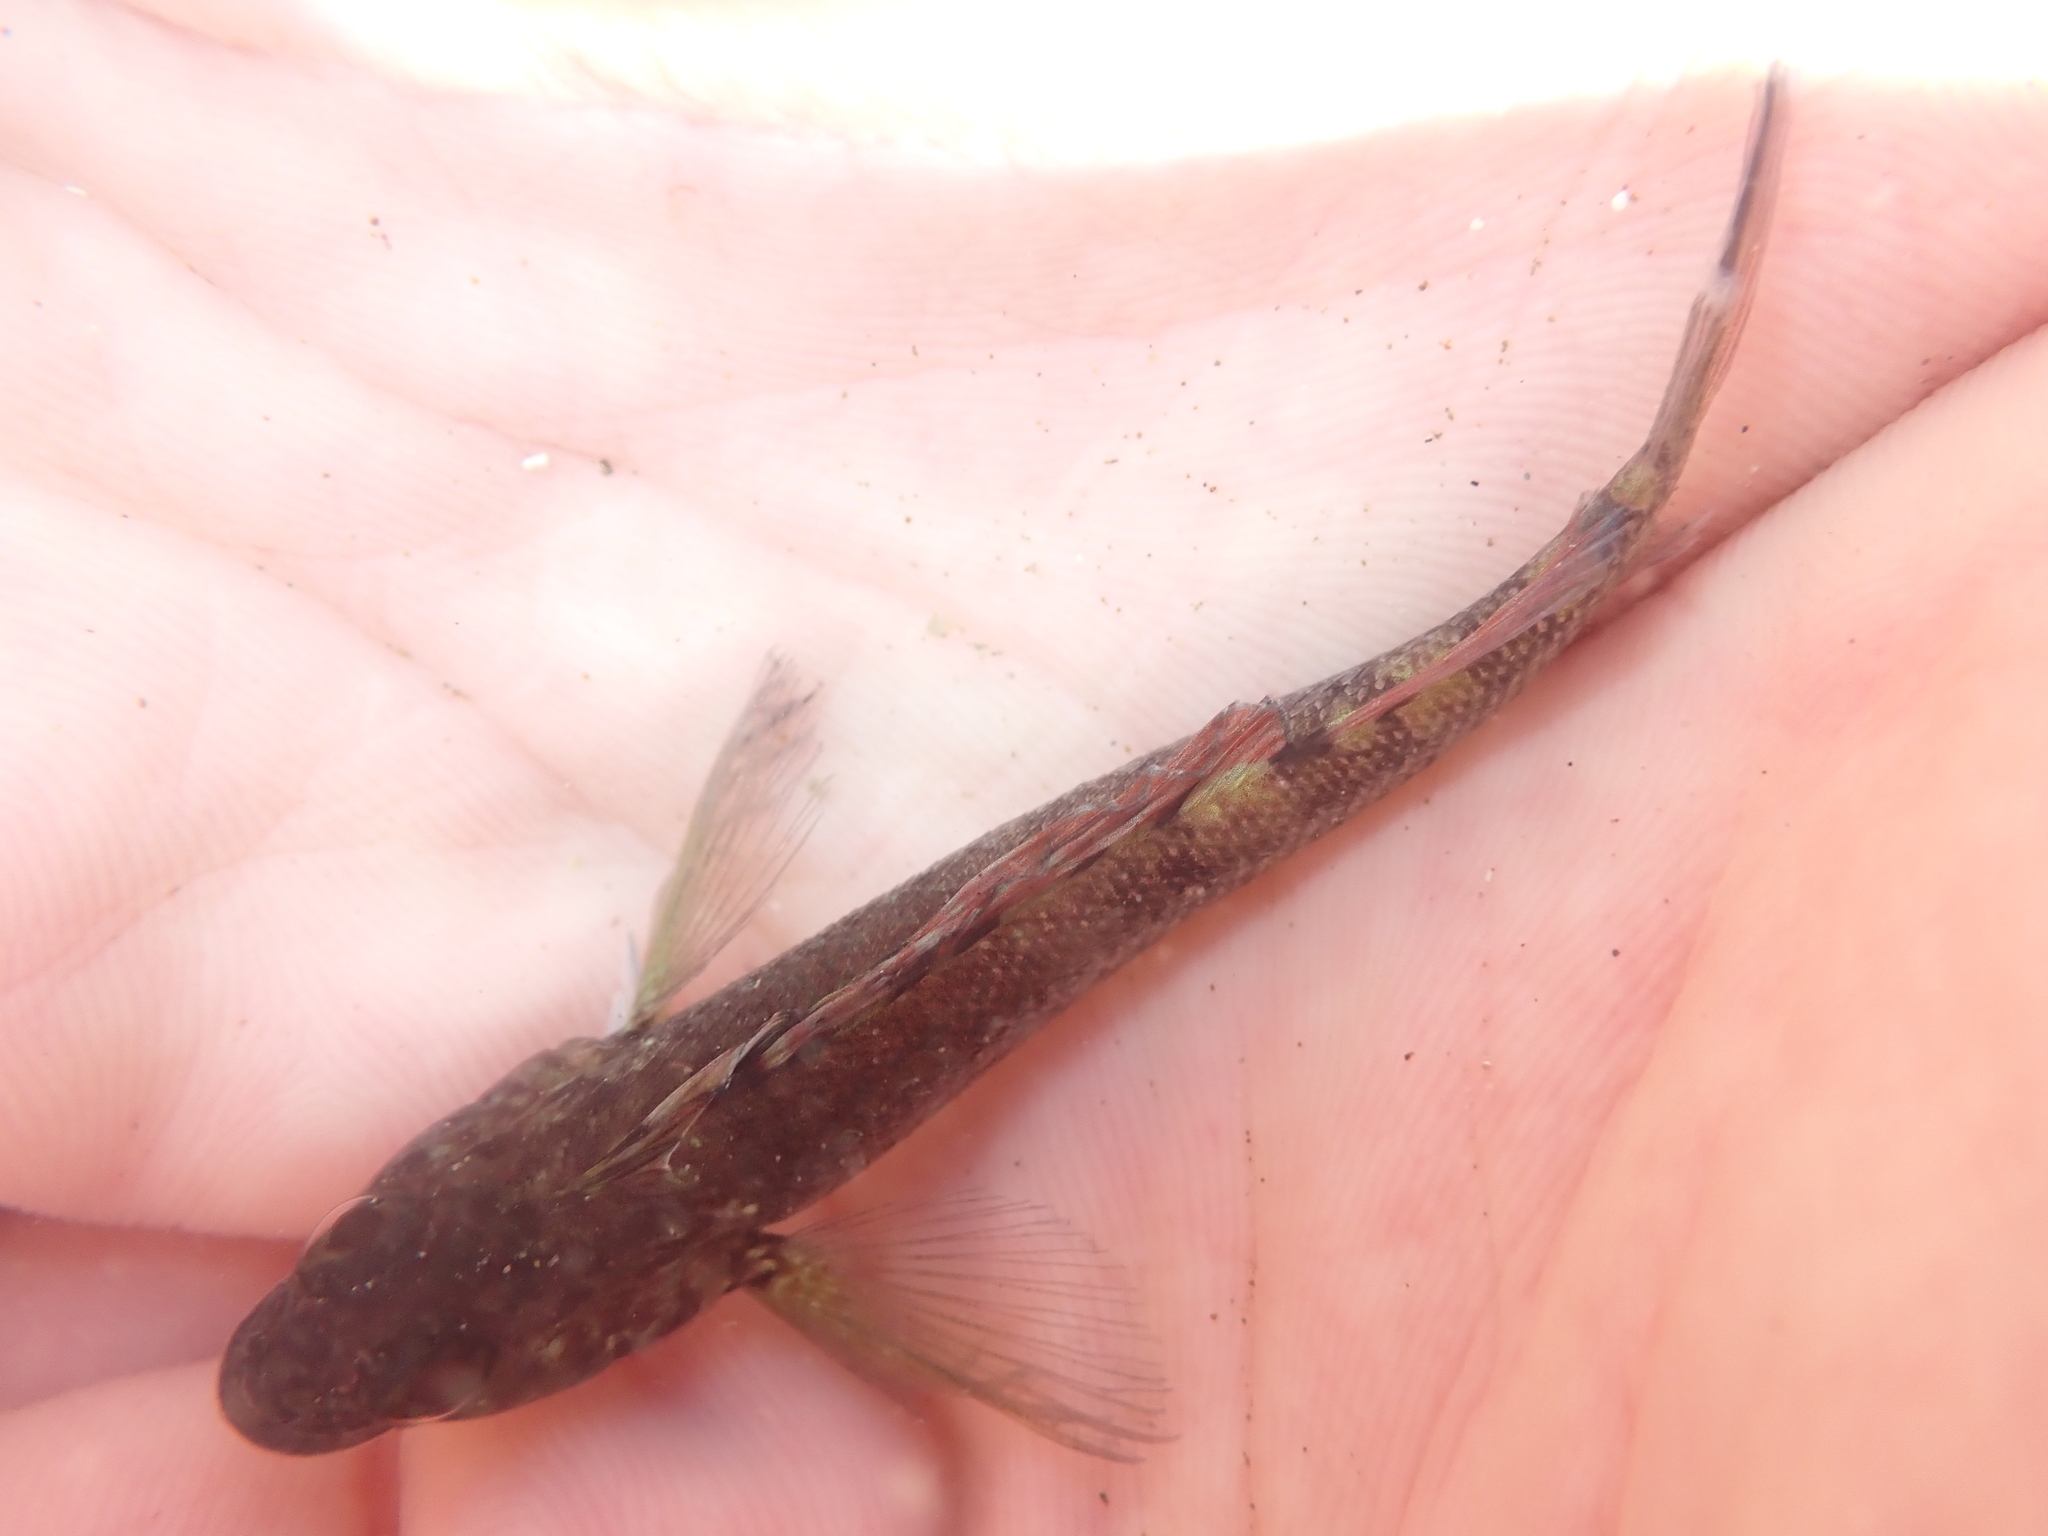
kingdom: Animalia
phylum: Chordata
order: Perciformes
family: Tripterygiidae
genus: Forsterygion
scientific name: Forsterygion lapillum
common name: Common triplefin
